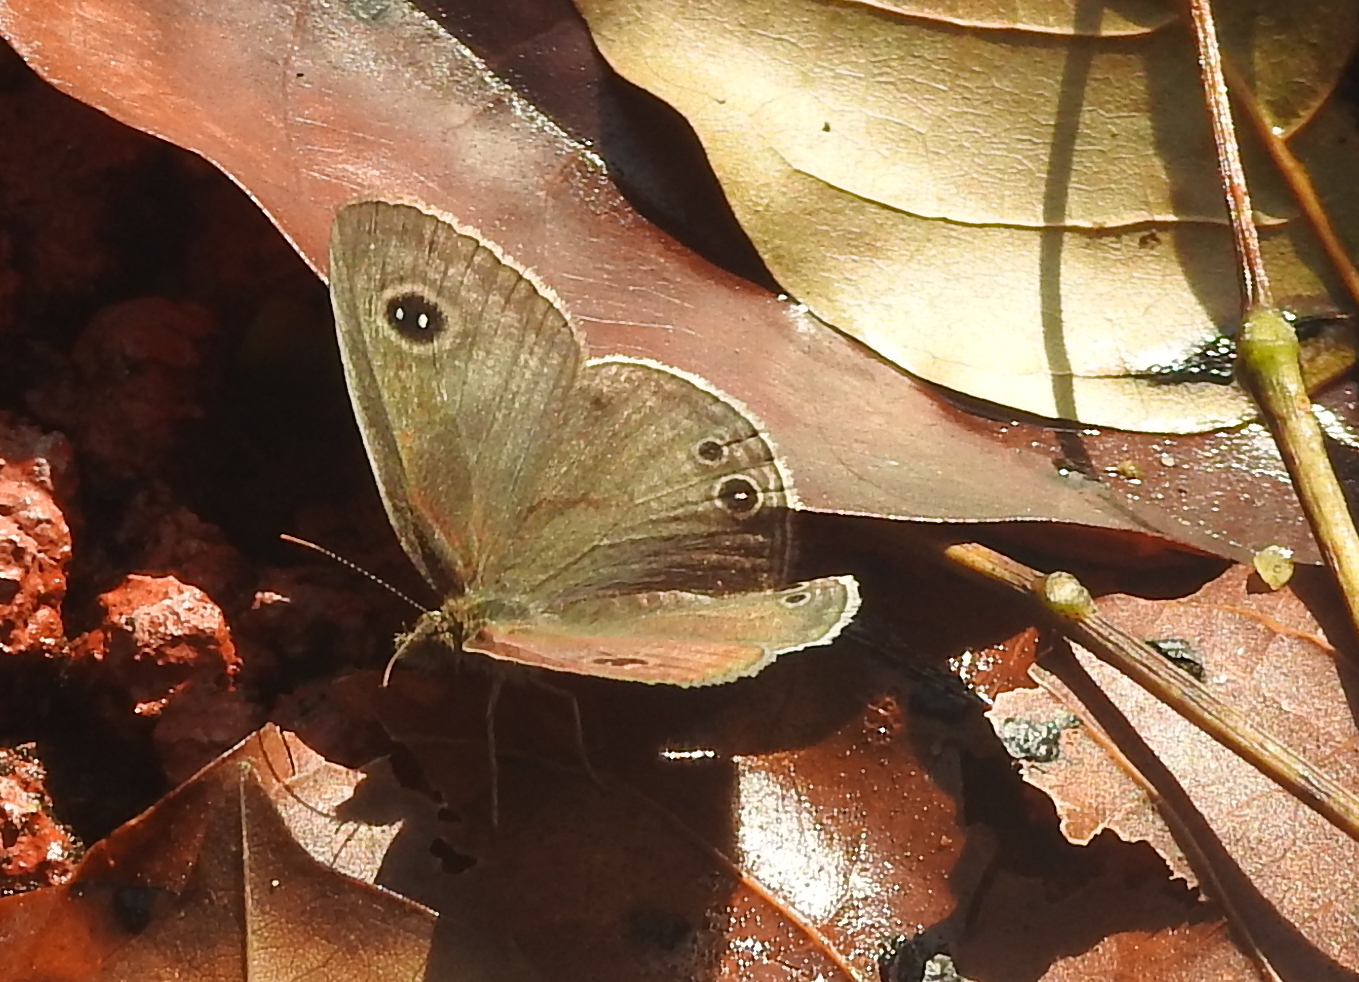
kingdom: Animalia
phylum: Arthropoda
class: Insecta
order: Lepidoptera
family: Nymphalidae
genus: Ypthima
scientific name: Ypthima huebneri
